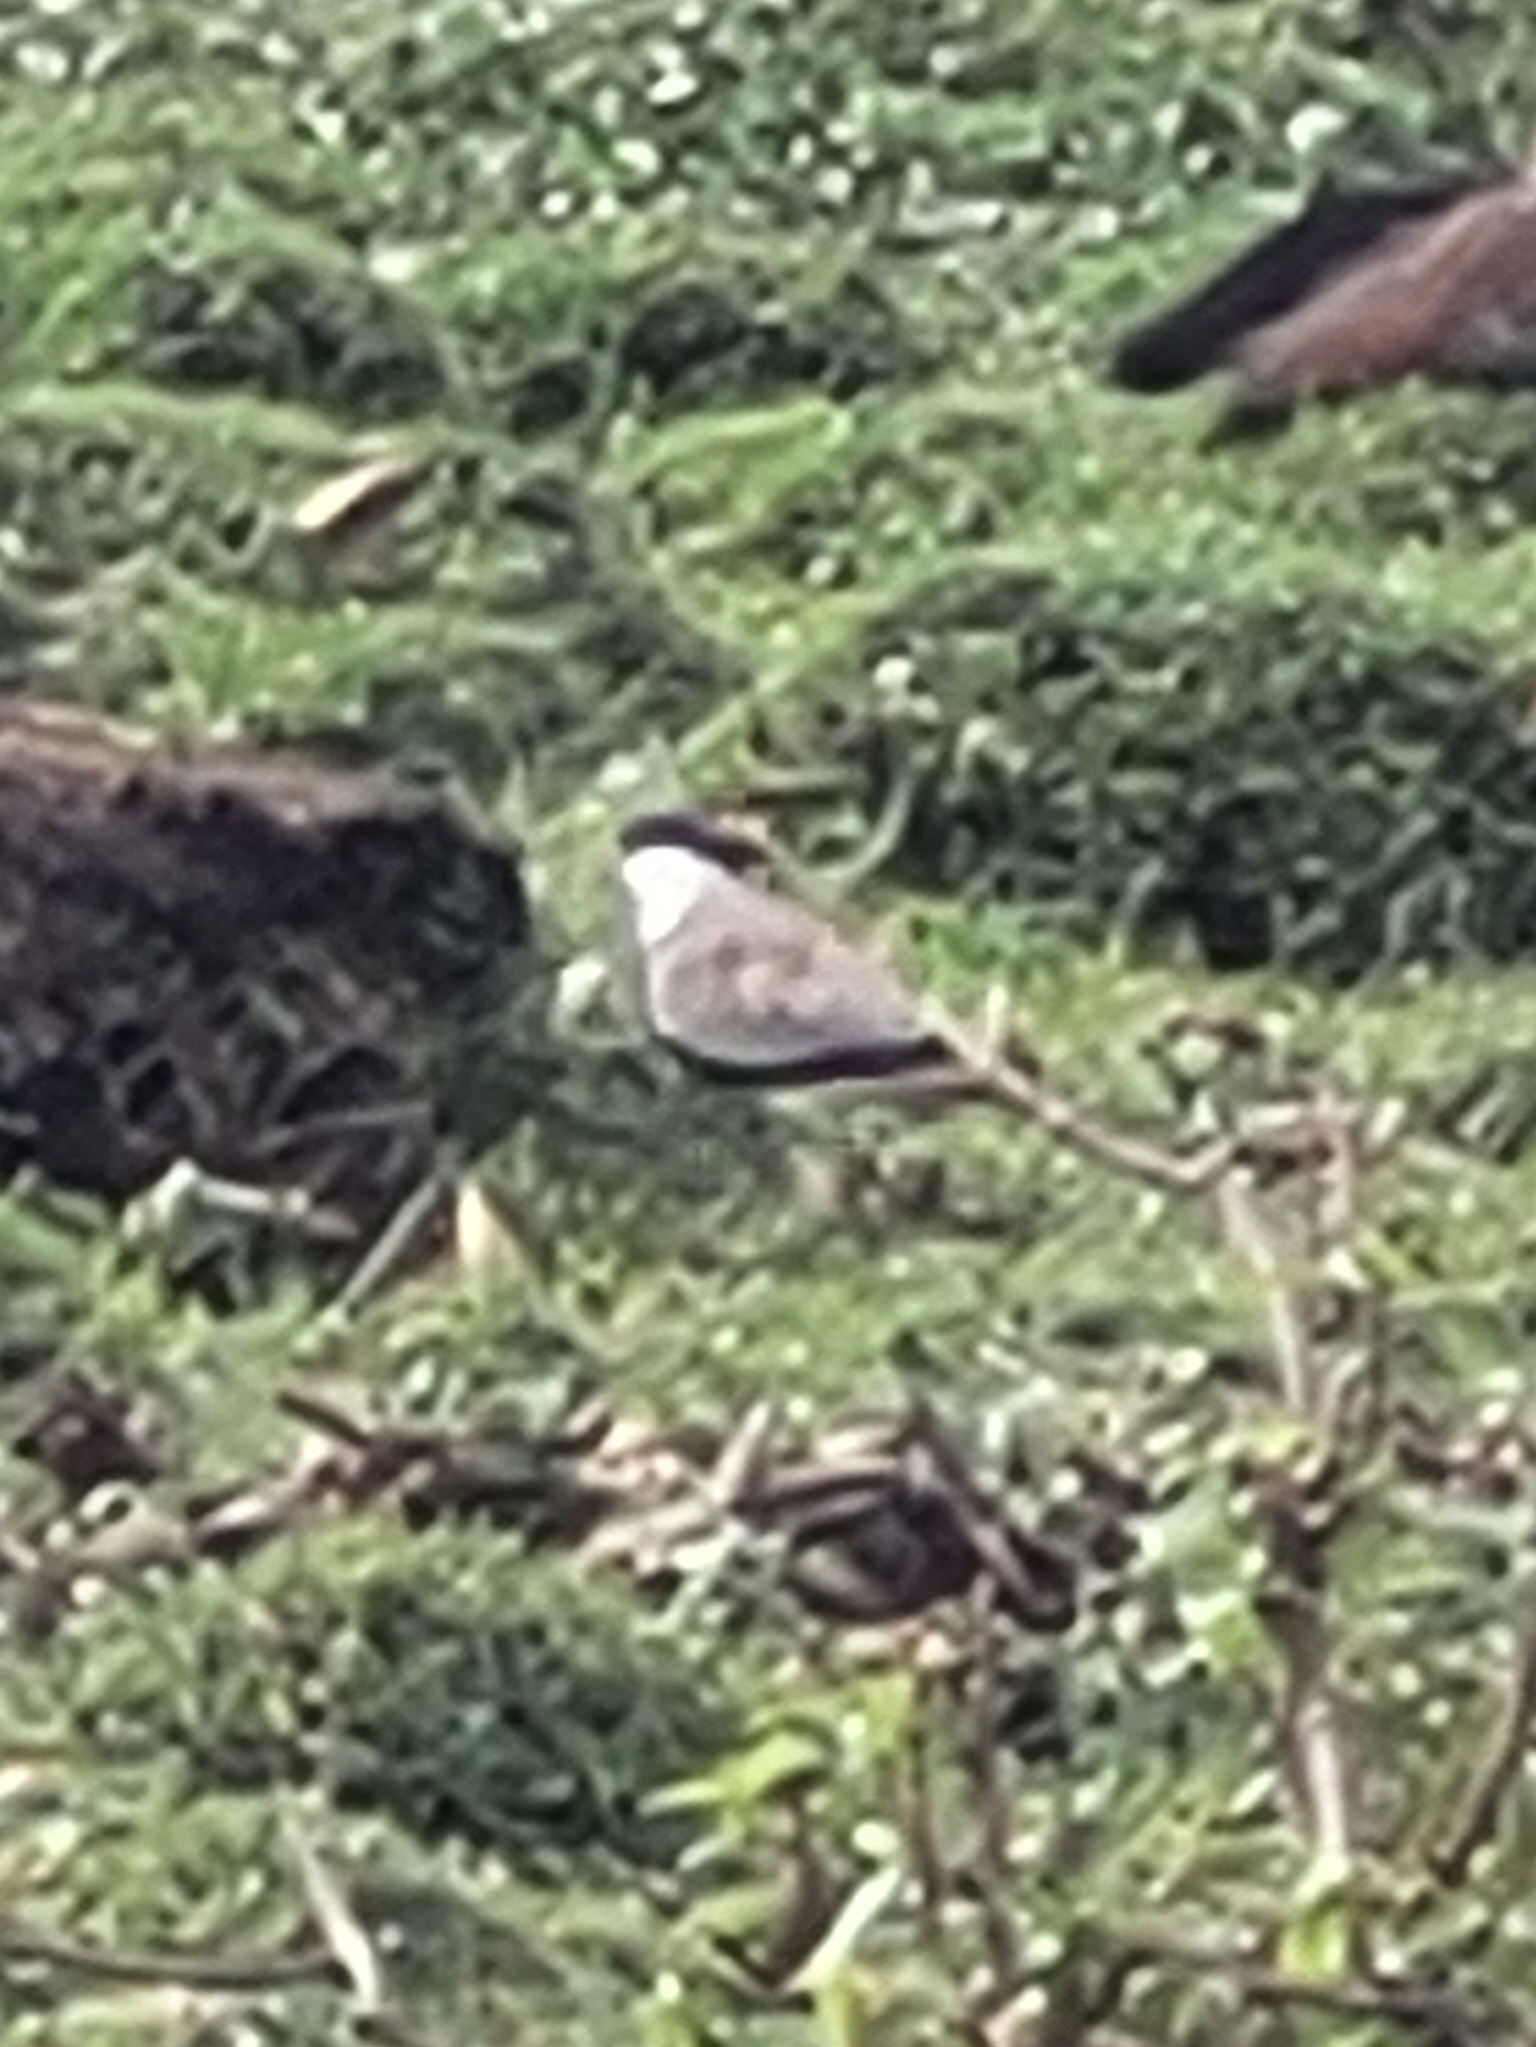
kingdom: Animalia
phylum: Chordata
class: Aves
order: Charadriiformes
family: Charadriidae
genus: Vanellus
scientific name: Vanellus spinosus
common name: Spur-winged lapwing
